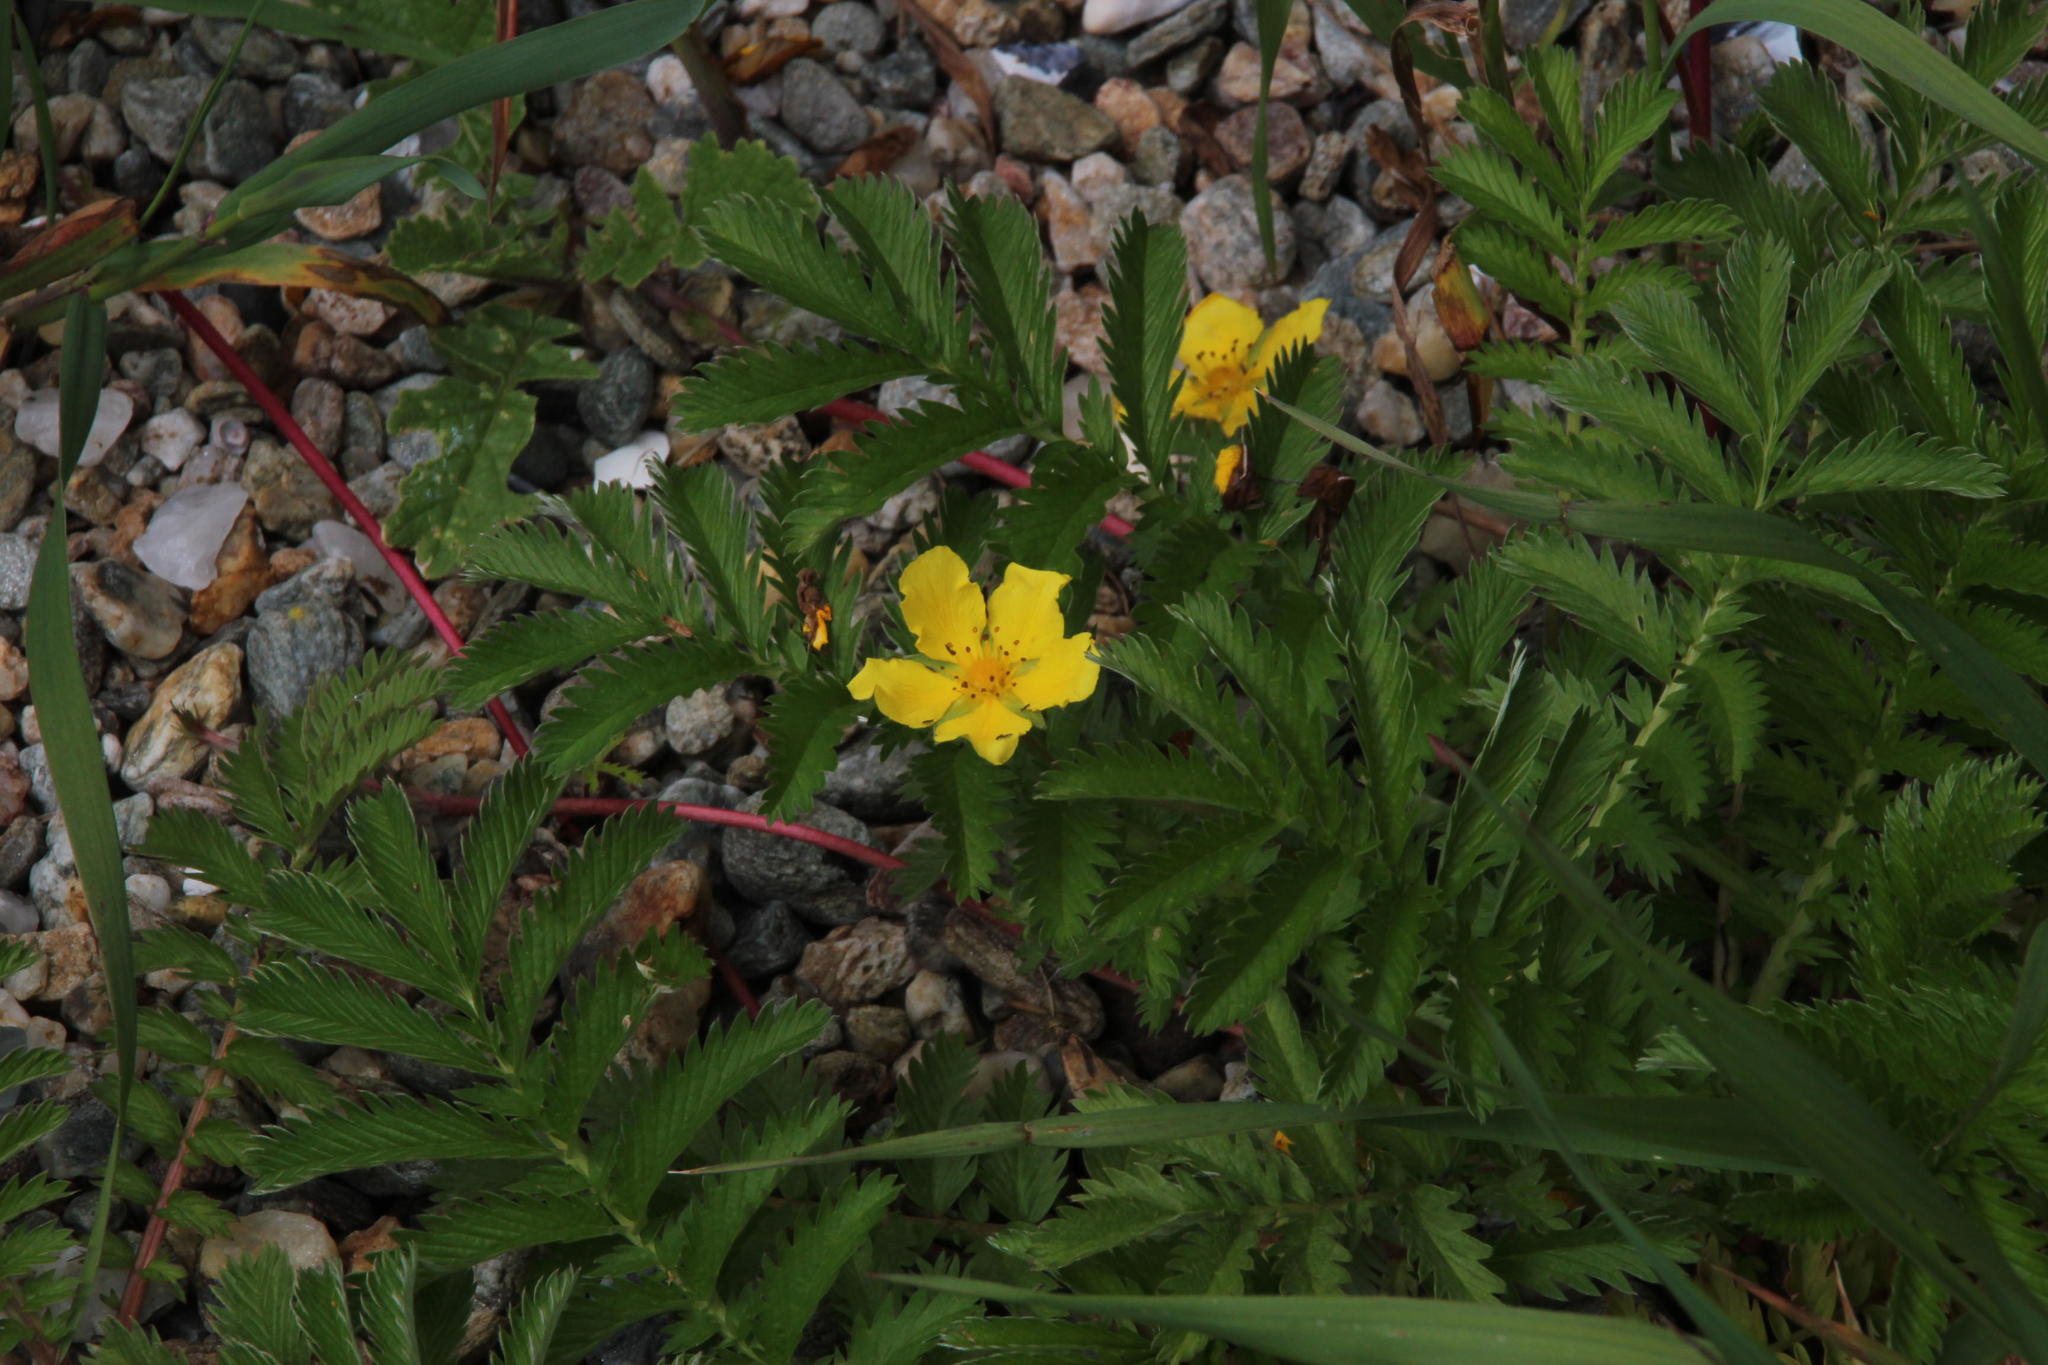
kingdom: Plantae
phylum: Tracheophyta
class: Magnoliopsida
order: Rosales
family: Rosaceae
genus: Argentina
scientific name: Argentina anserina
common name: Common silverweed
